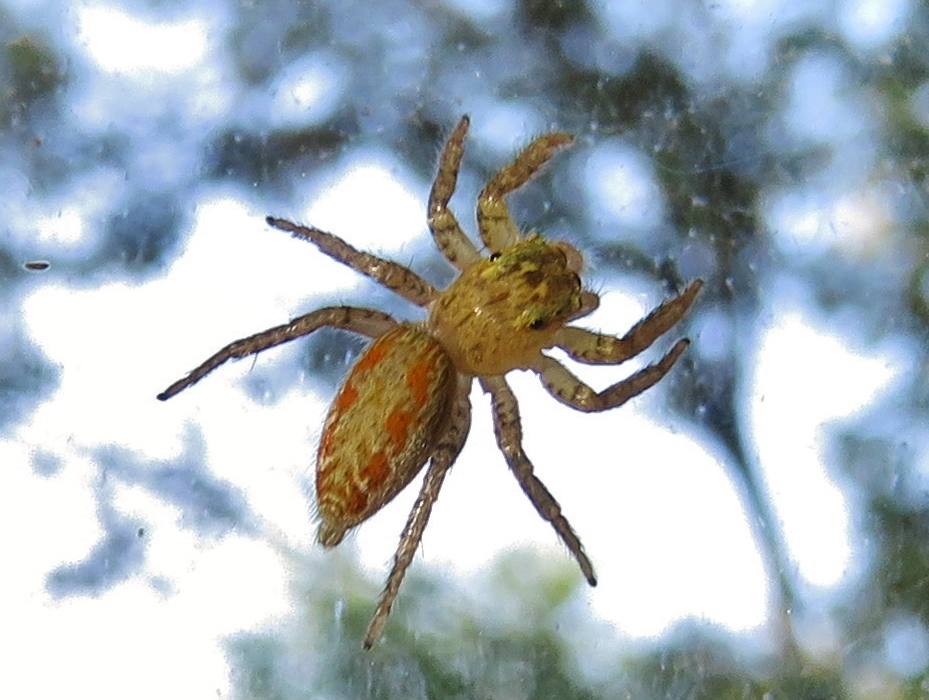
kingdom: Animalia
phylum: Arthropoda
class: Arachnida
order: Araneae
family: Salticidae
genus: Maevia
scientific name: Maevia inclemens
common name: Dimorphic jumper
